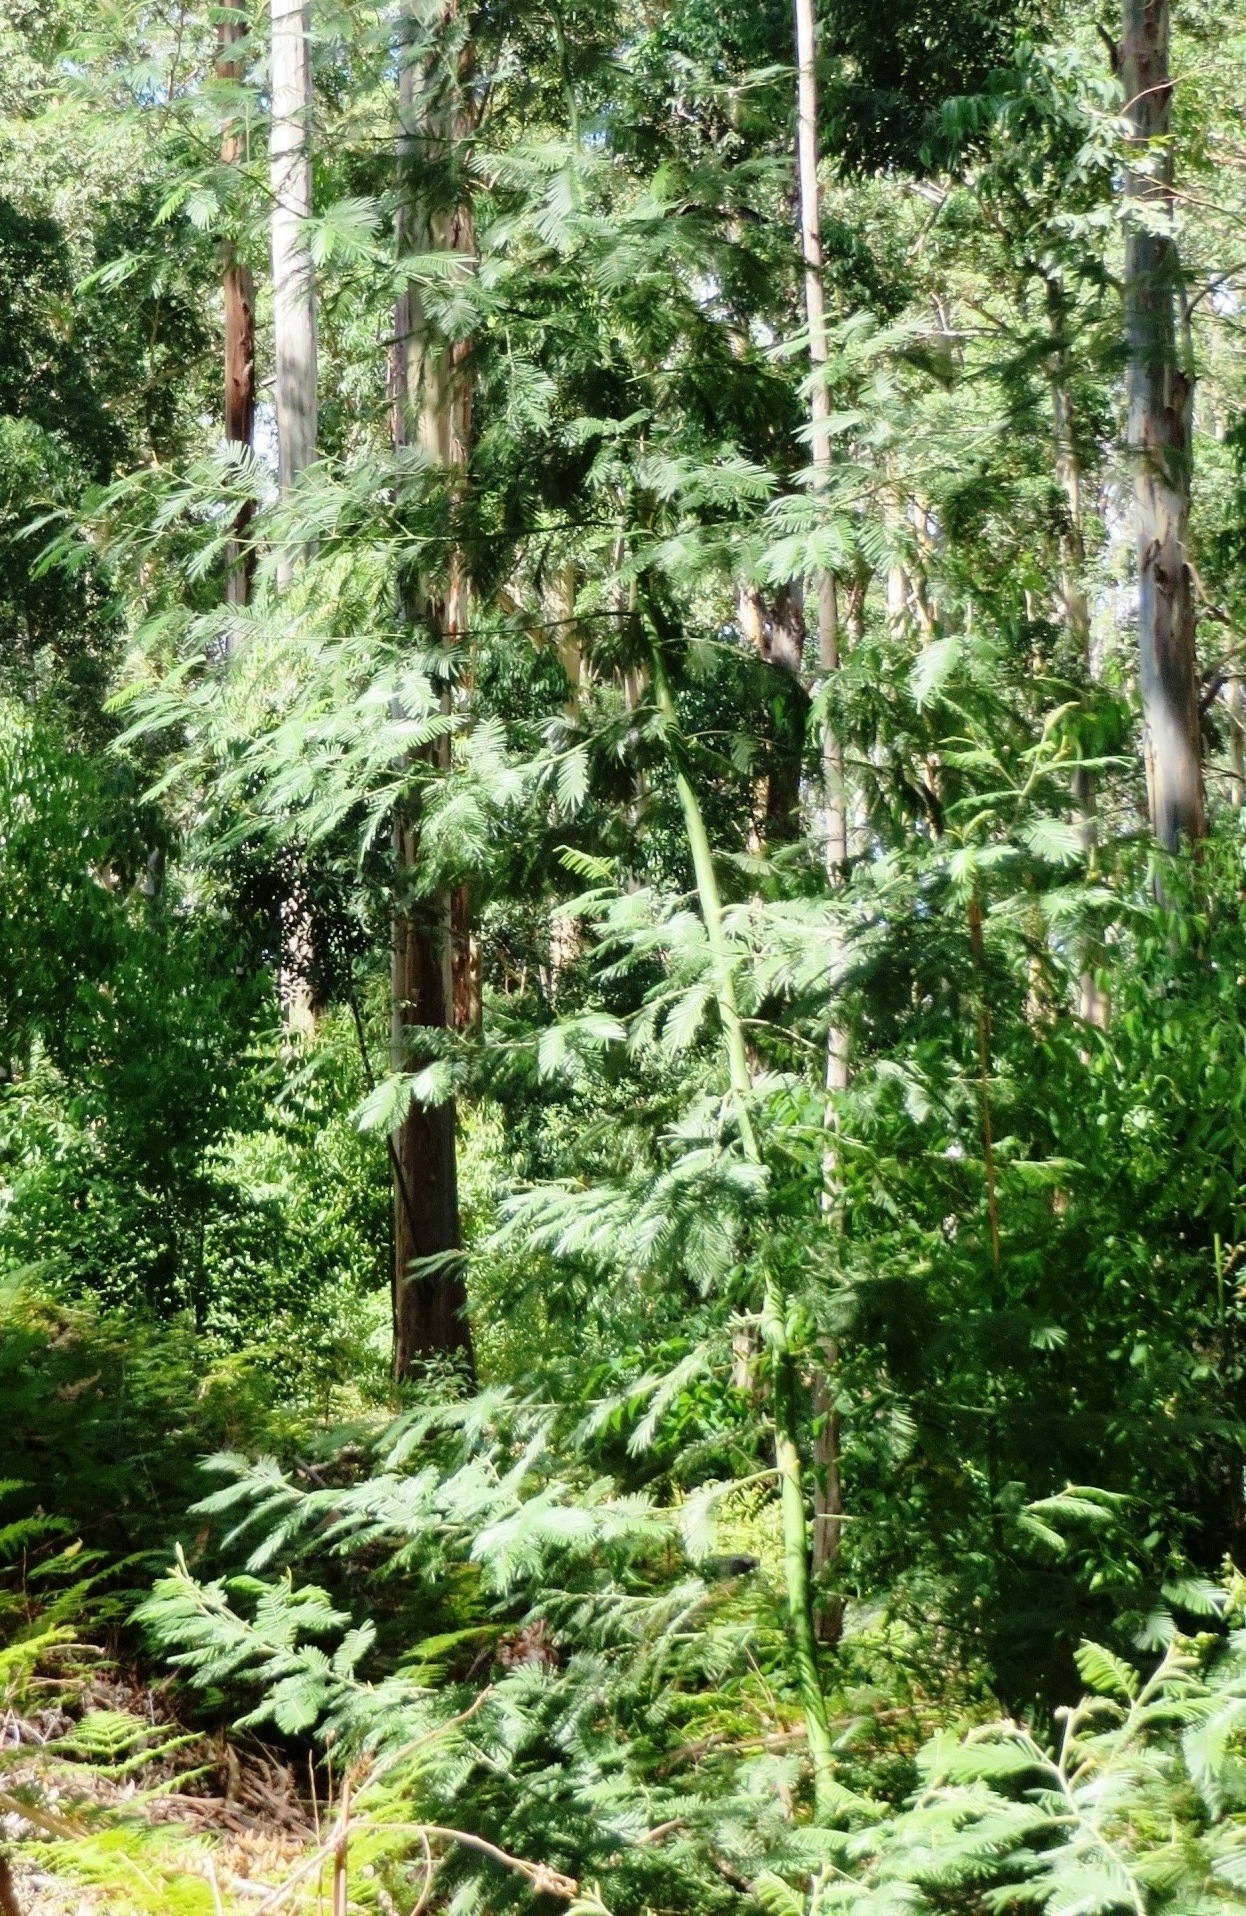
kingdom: Plantae
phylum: Tracheophyta
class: Magnoliopsida
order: Fabales
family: Fabaceae
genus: Acacia
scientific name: Acacia mearnsii
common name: Black wattle
